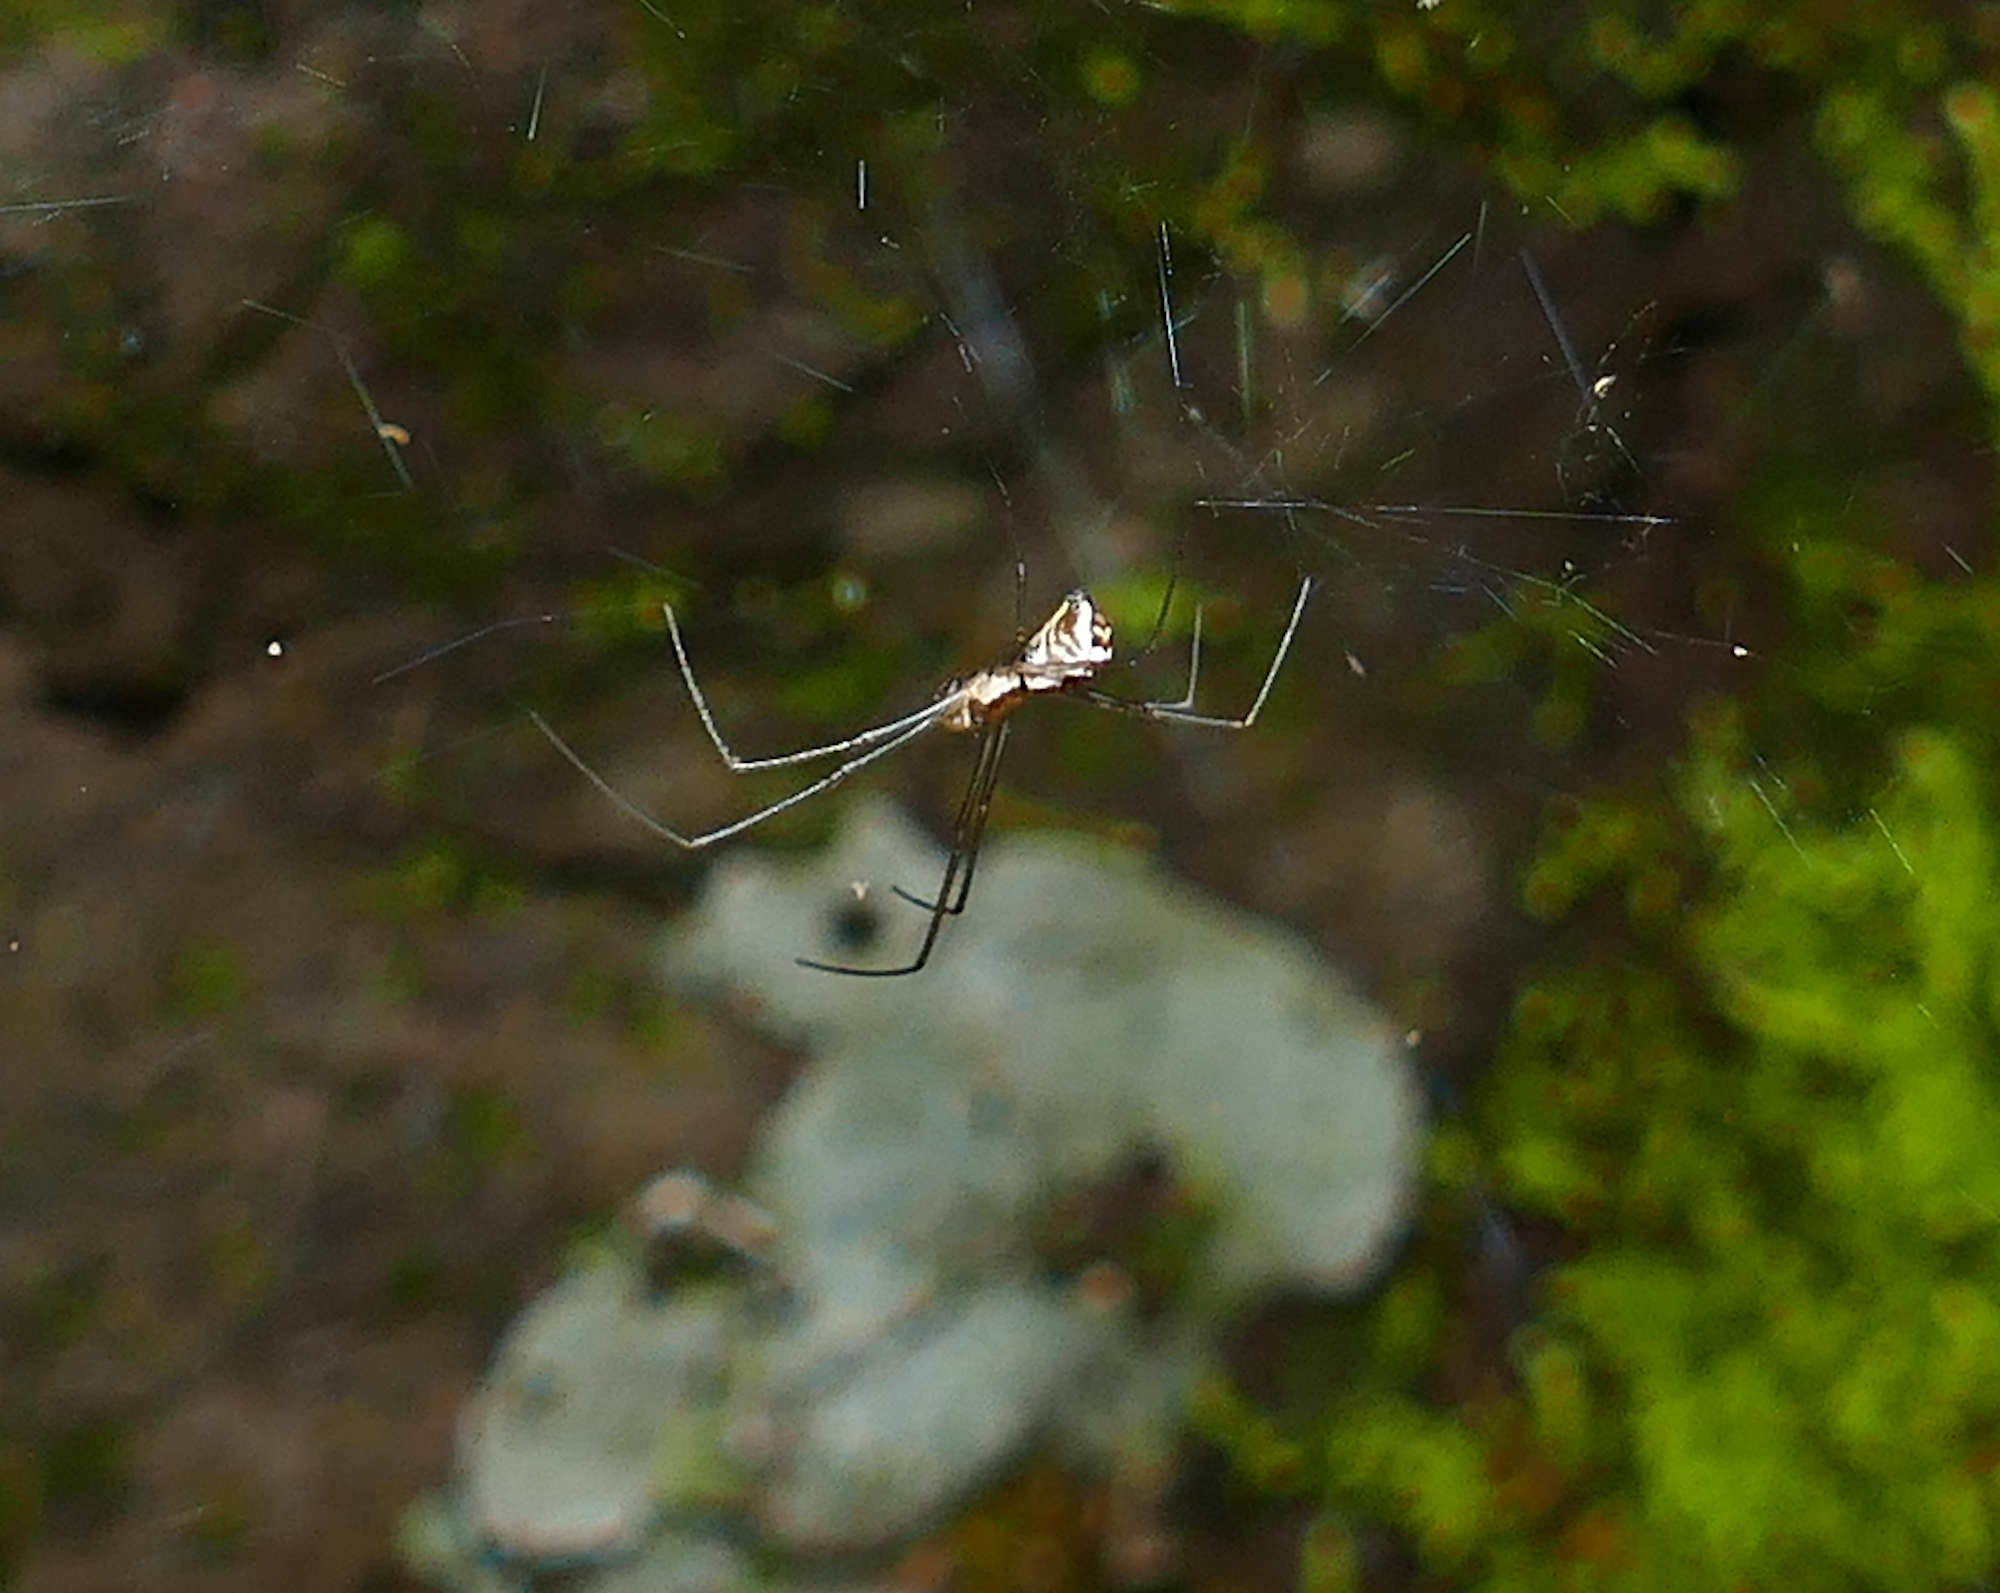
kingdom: Animalia
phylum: Arthropoda
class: Arachnida
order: Araneae
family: Linyphiidae
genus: Neriene
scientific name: Neriene radiata
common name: Filmy dome spider
